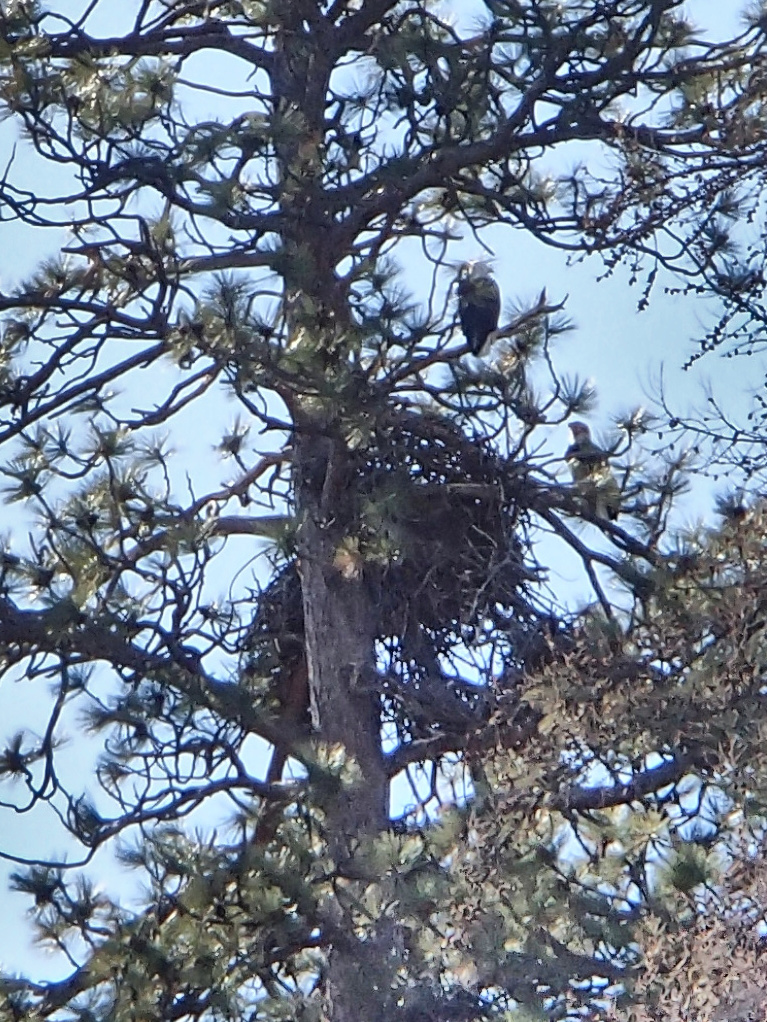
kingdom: Animalia
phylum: Chordata
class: Aves
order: Accipitriformes
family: Accipitridae
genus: Haliaeetus
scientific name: Haliaeetus leucocephalus
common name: Bald eagle
